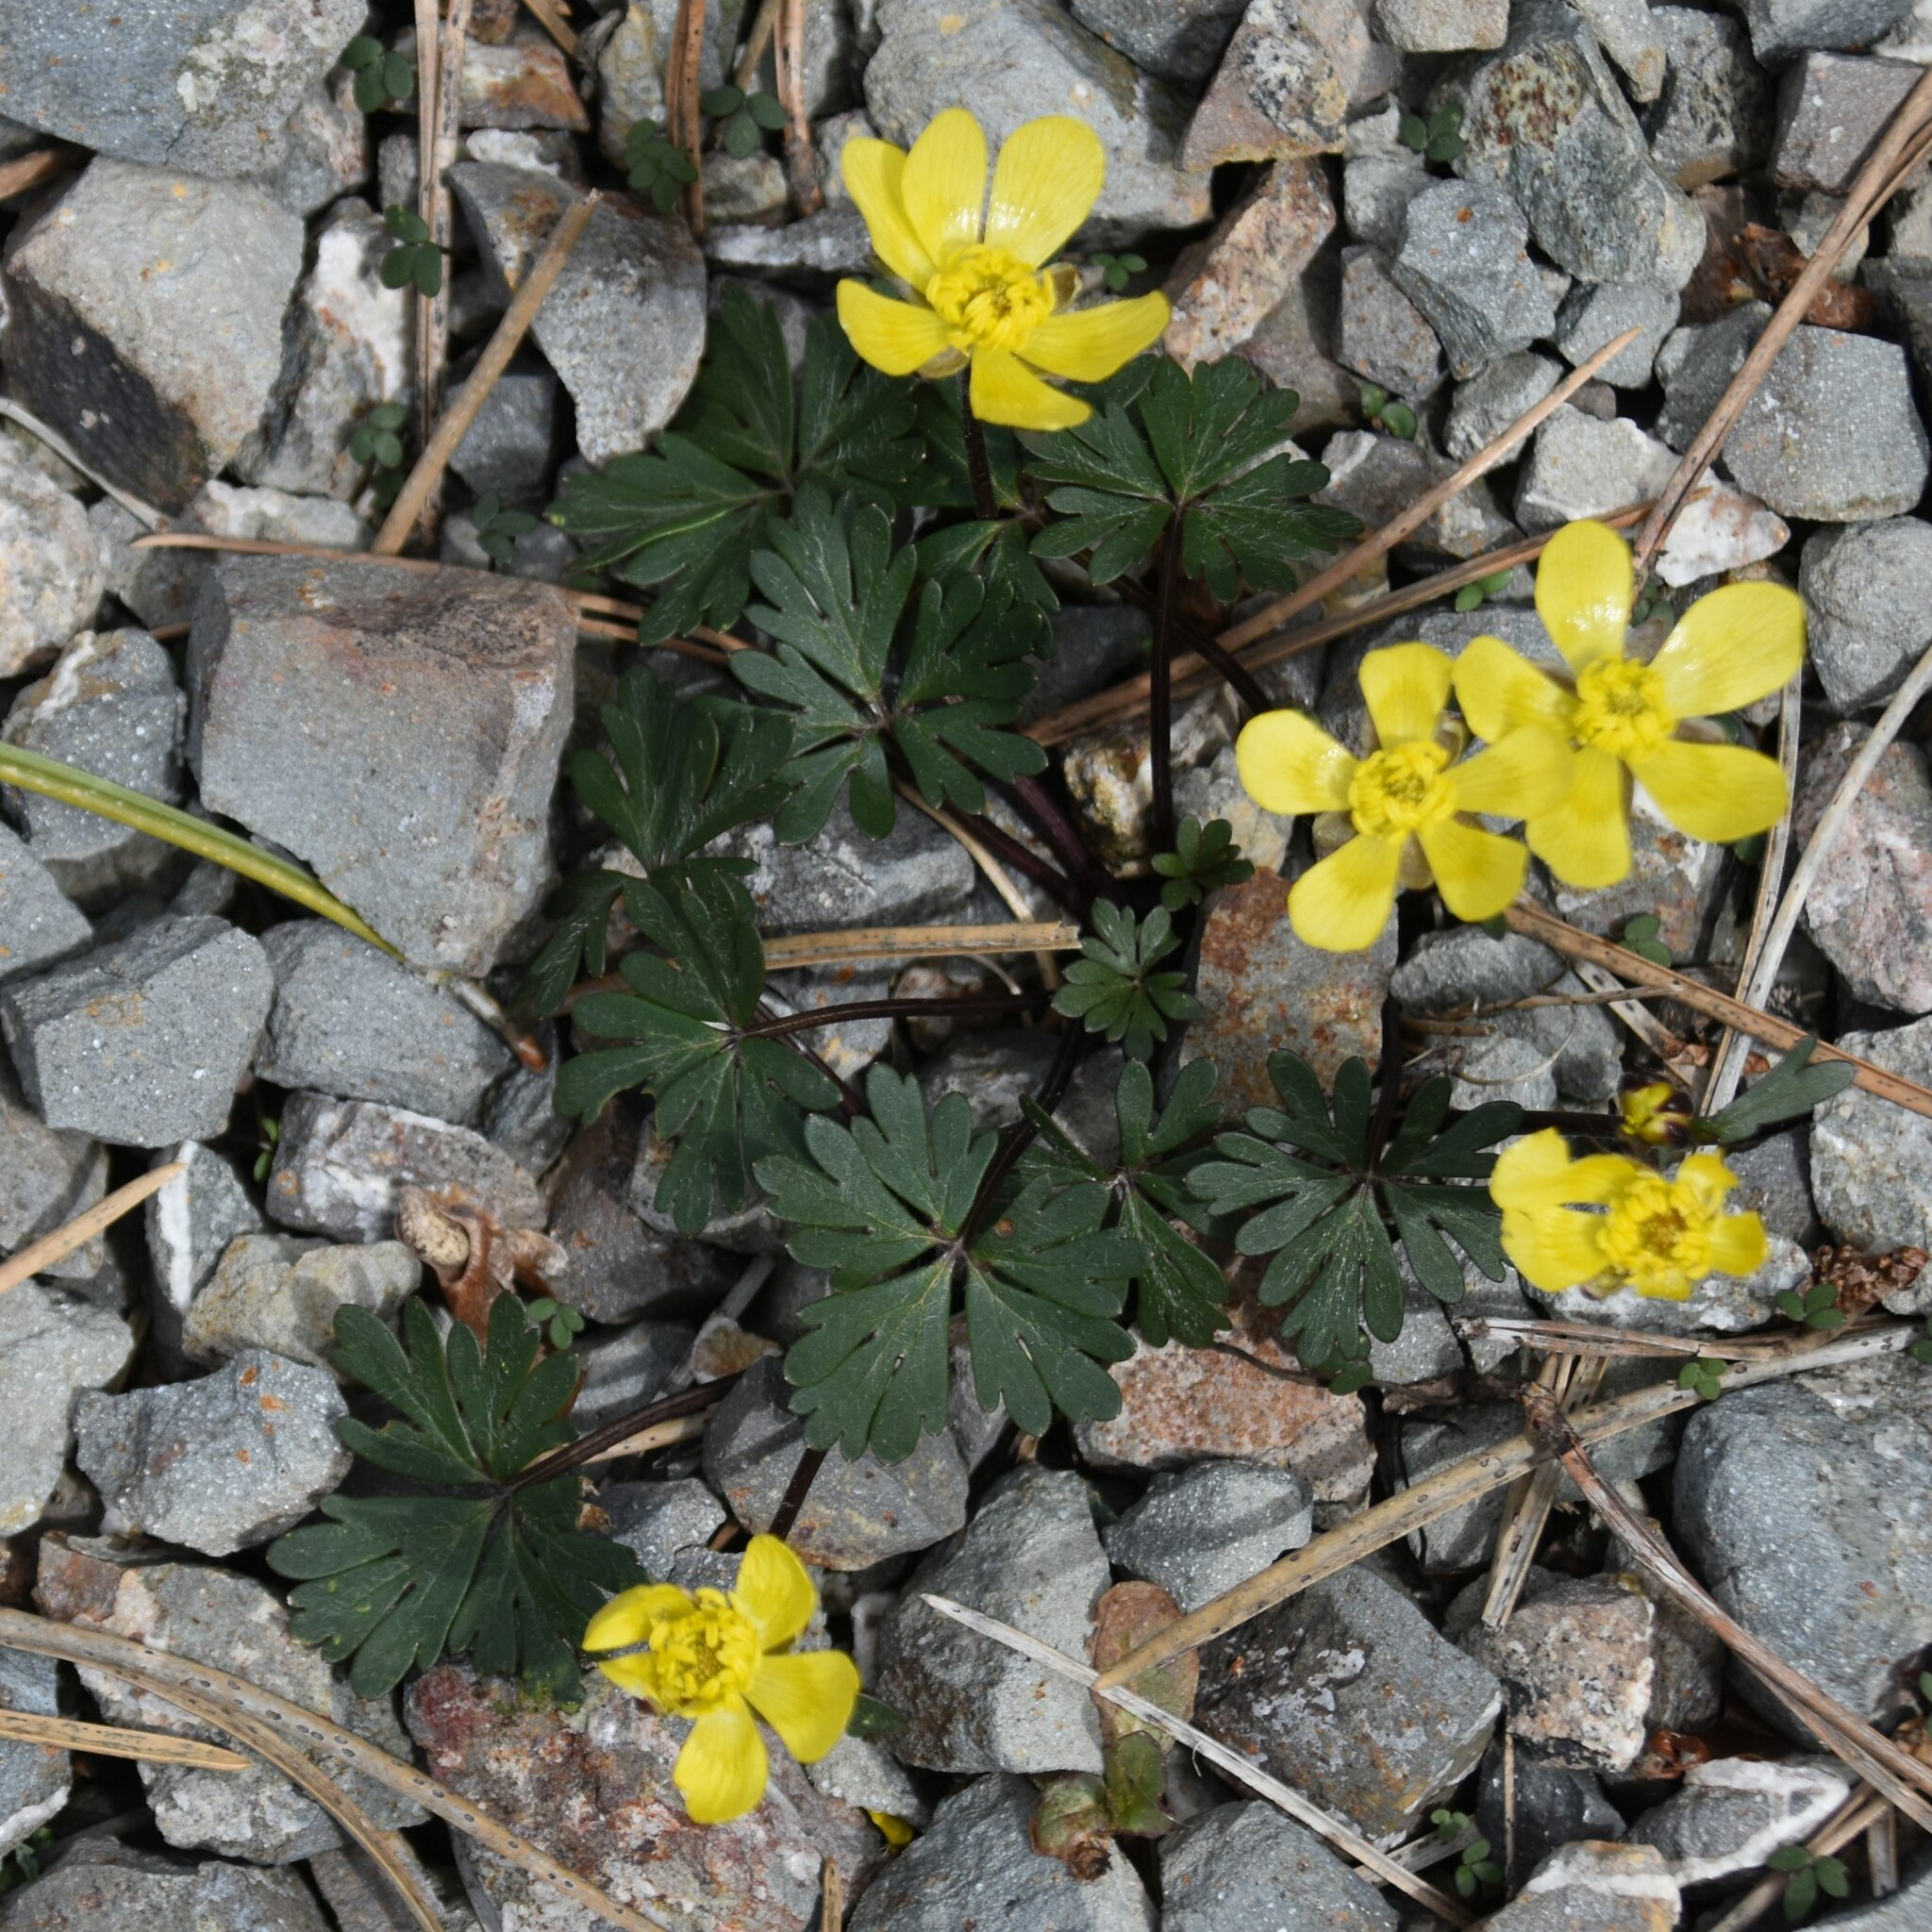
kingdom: Plantae
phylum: Tracheophyta
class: Magnoliopsida
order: Ranunculales
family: Ranunculaceae
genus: Ranunculus
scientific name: Ranunculus cyprius
